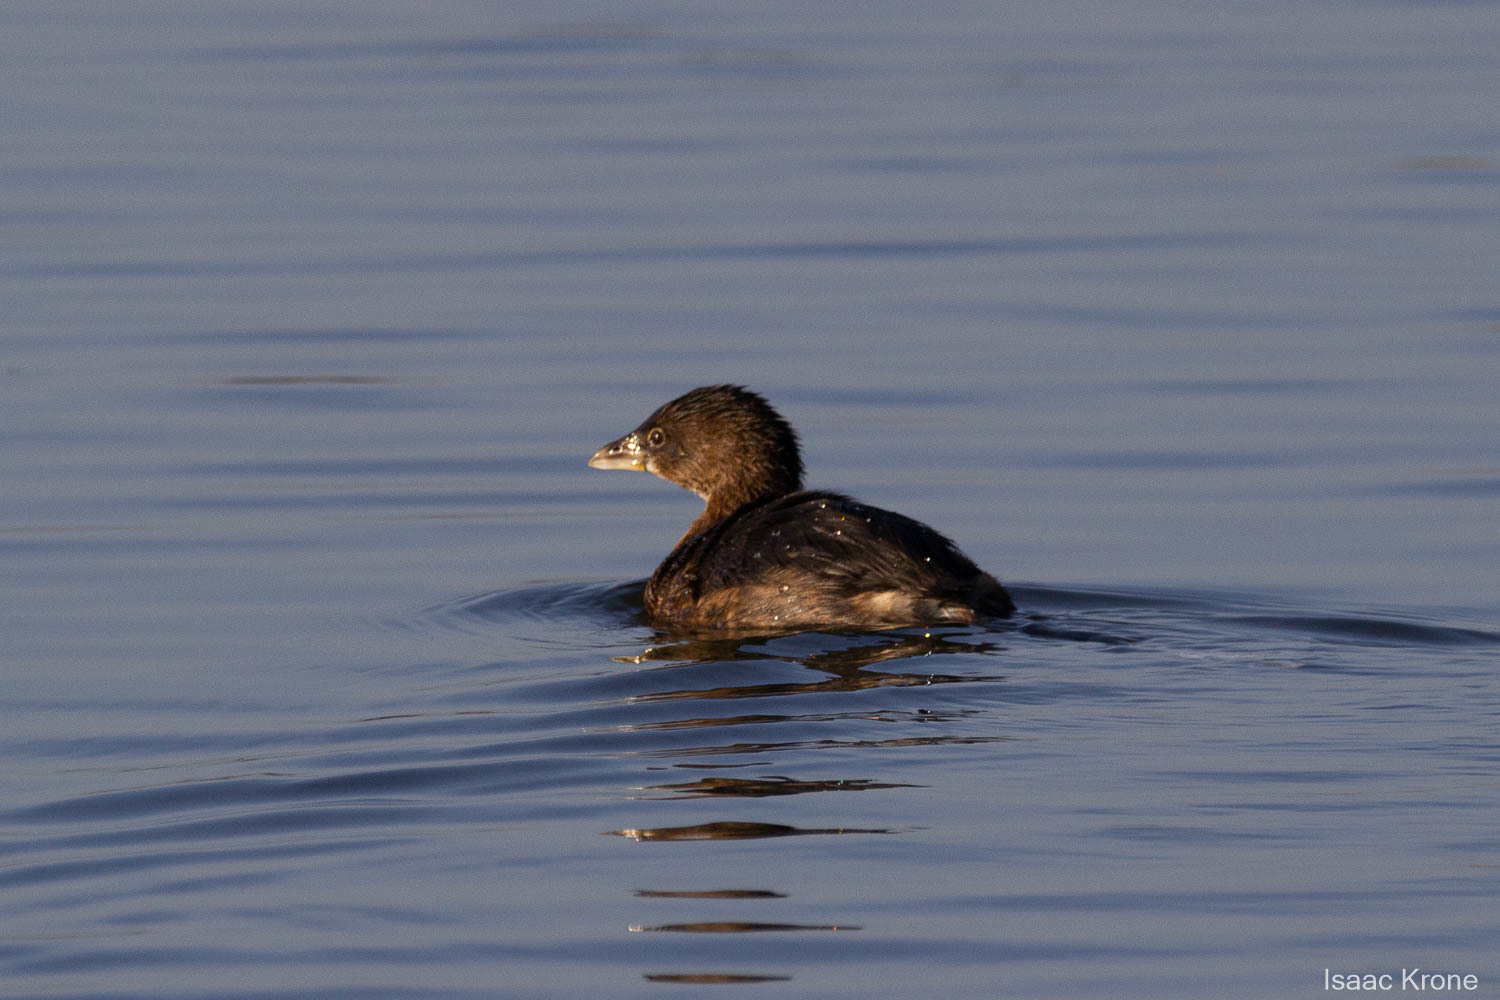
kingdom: Animalia
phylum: Chordata
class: Aves
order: Podicipediformes
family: Podicipedidae
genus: Podilymbus
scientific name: Podilymbus podiceps
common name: Pied-billed grebe
